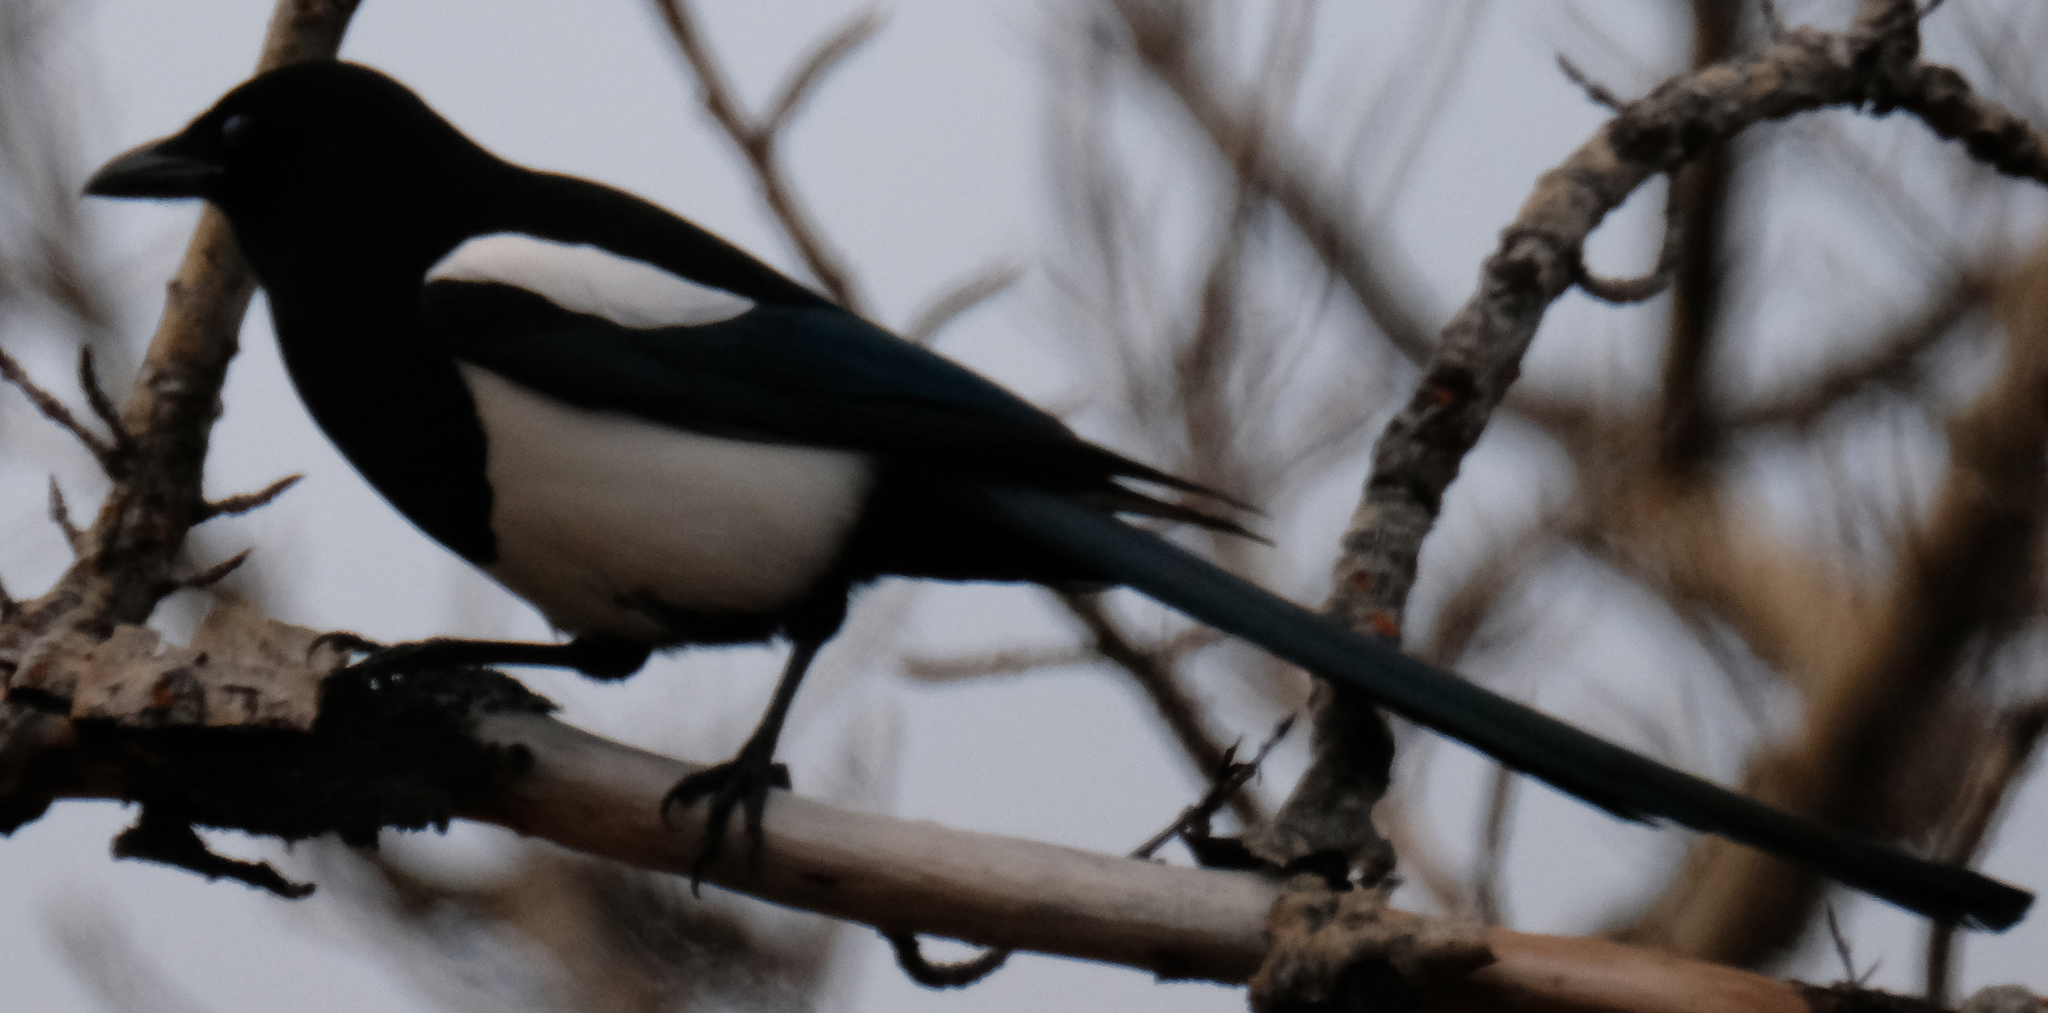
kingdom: Animalia
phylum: Chordata
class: Aves
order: Passeriformes
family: Corvidae
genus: Pica
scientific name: Pica hudsonia
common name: Black-billed magpie
